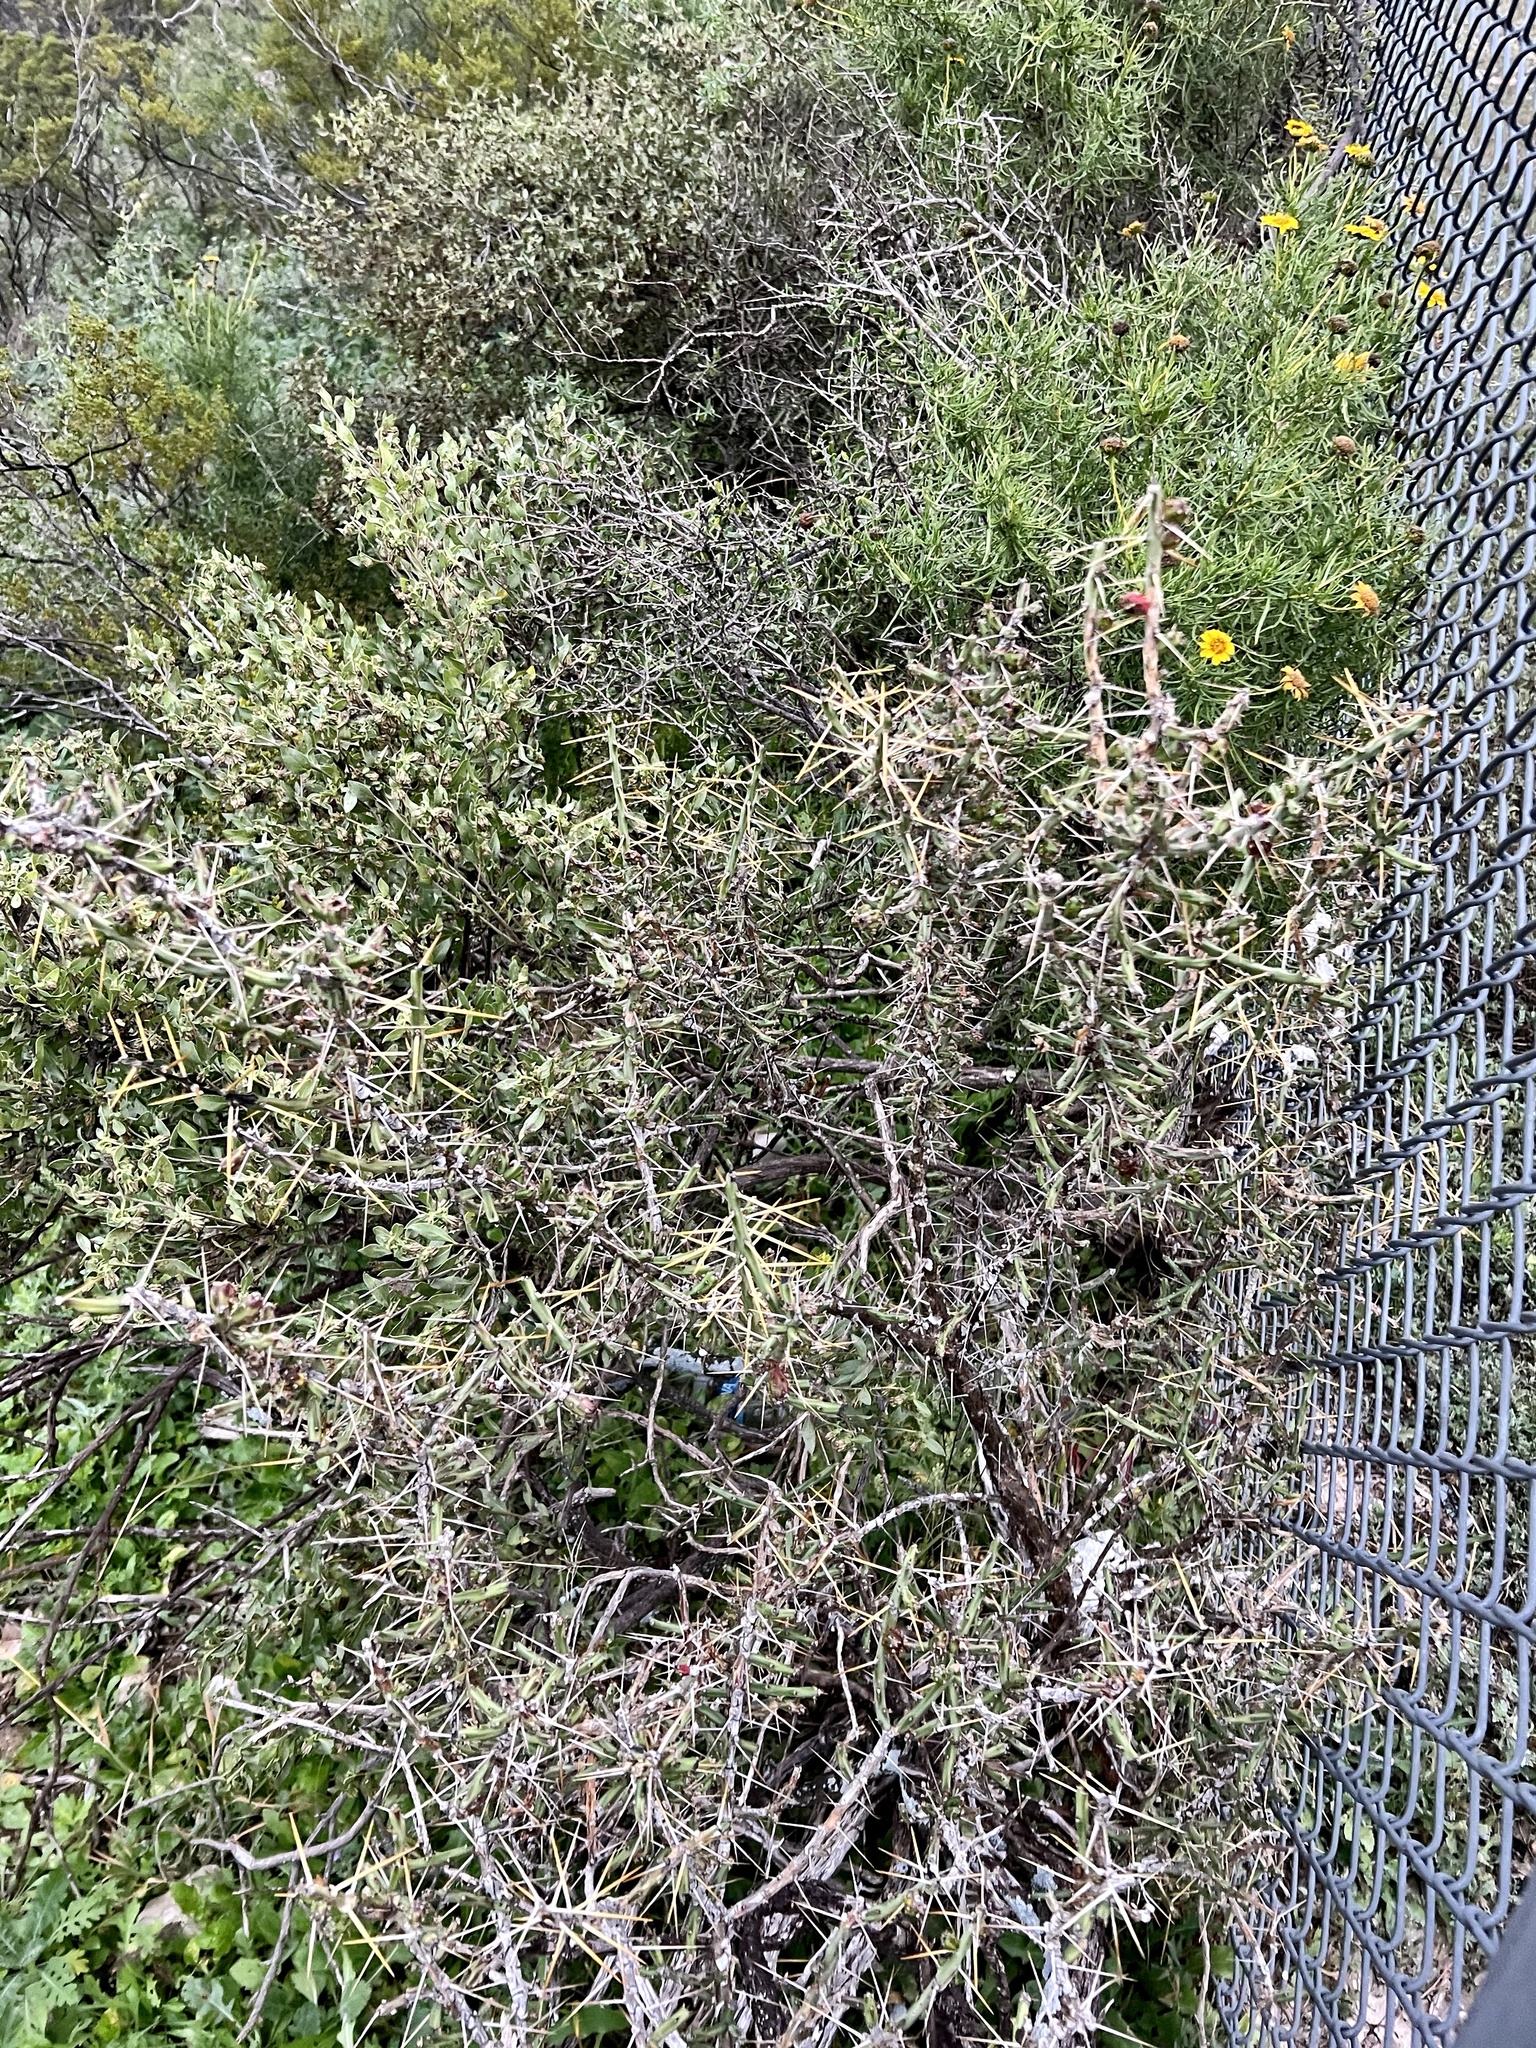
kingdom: Plantae
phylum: Tracheophyta
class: Magnoliopsida
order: Caryophyllales
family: Cactaceae
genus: Cylindropuntia
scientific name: Cylindropuntia leptocaulis
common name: Christmas cactus
